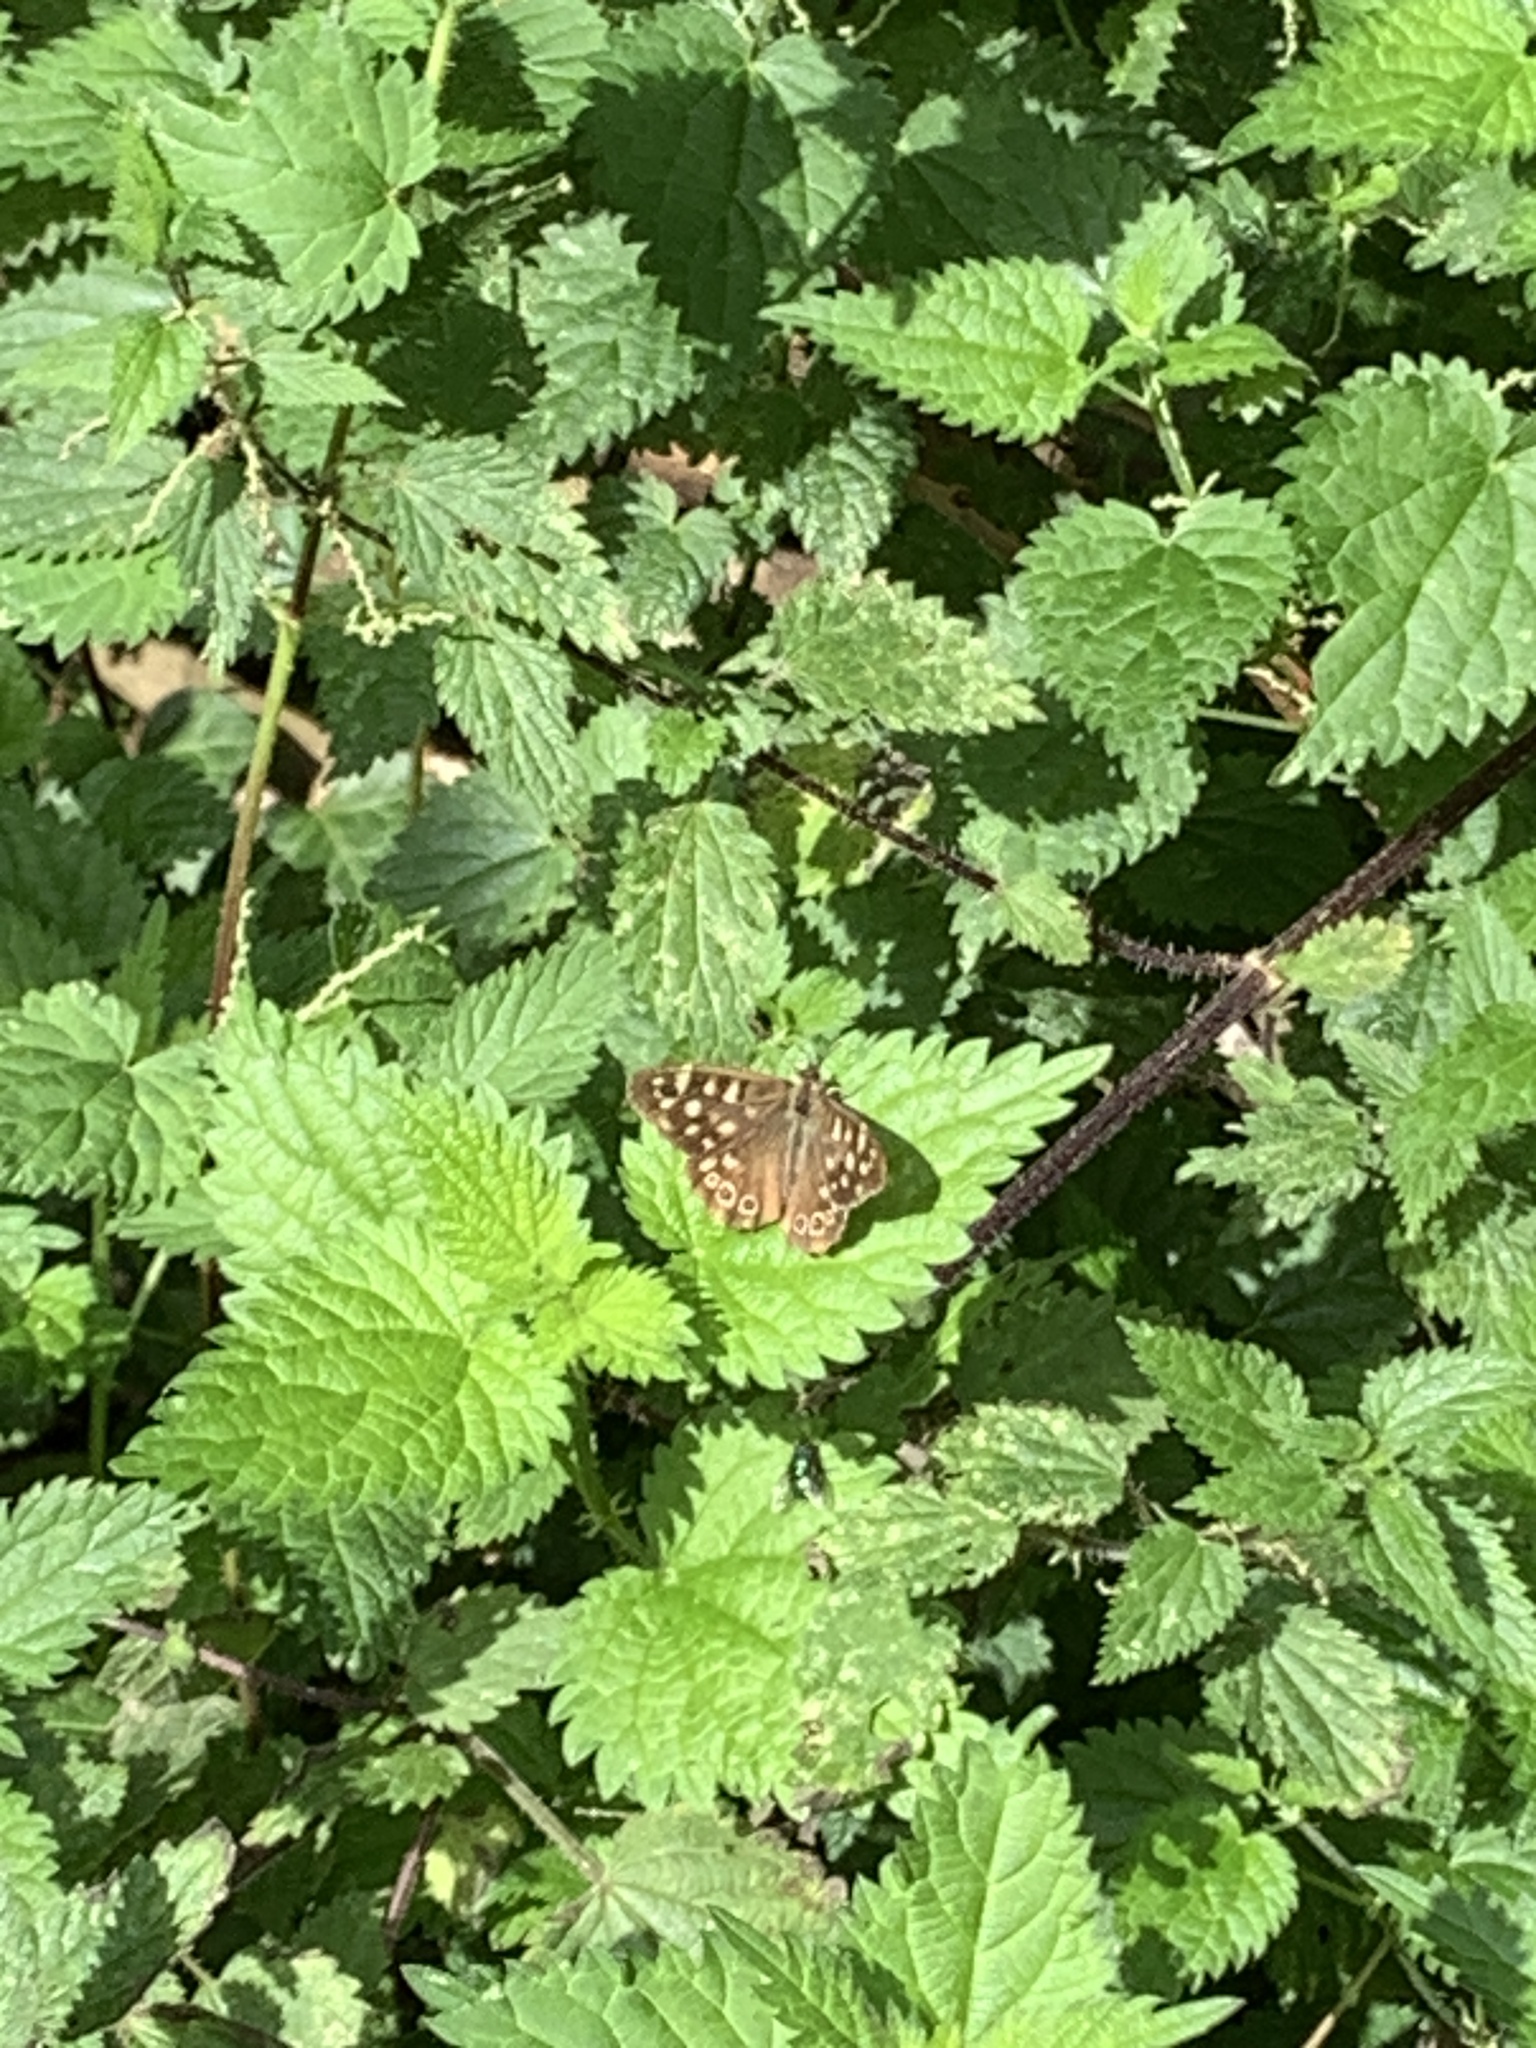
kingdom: Animalia
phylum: Arthropoda
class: Insecta
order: Lepidoptera
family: Nymphalidae
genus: Pararge
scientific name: Pararge aegeria
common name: Speckled wood
